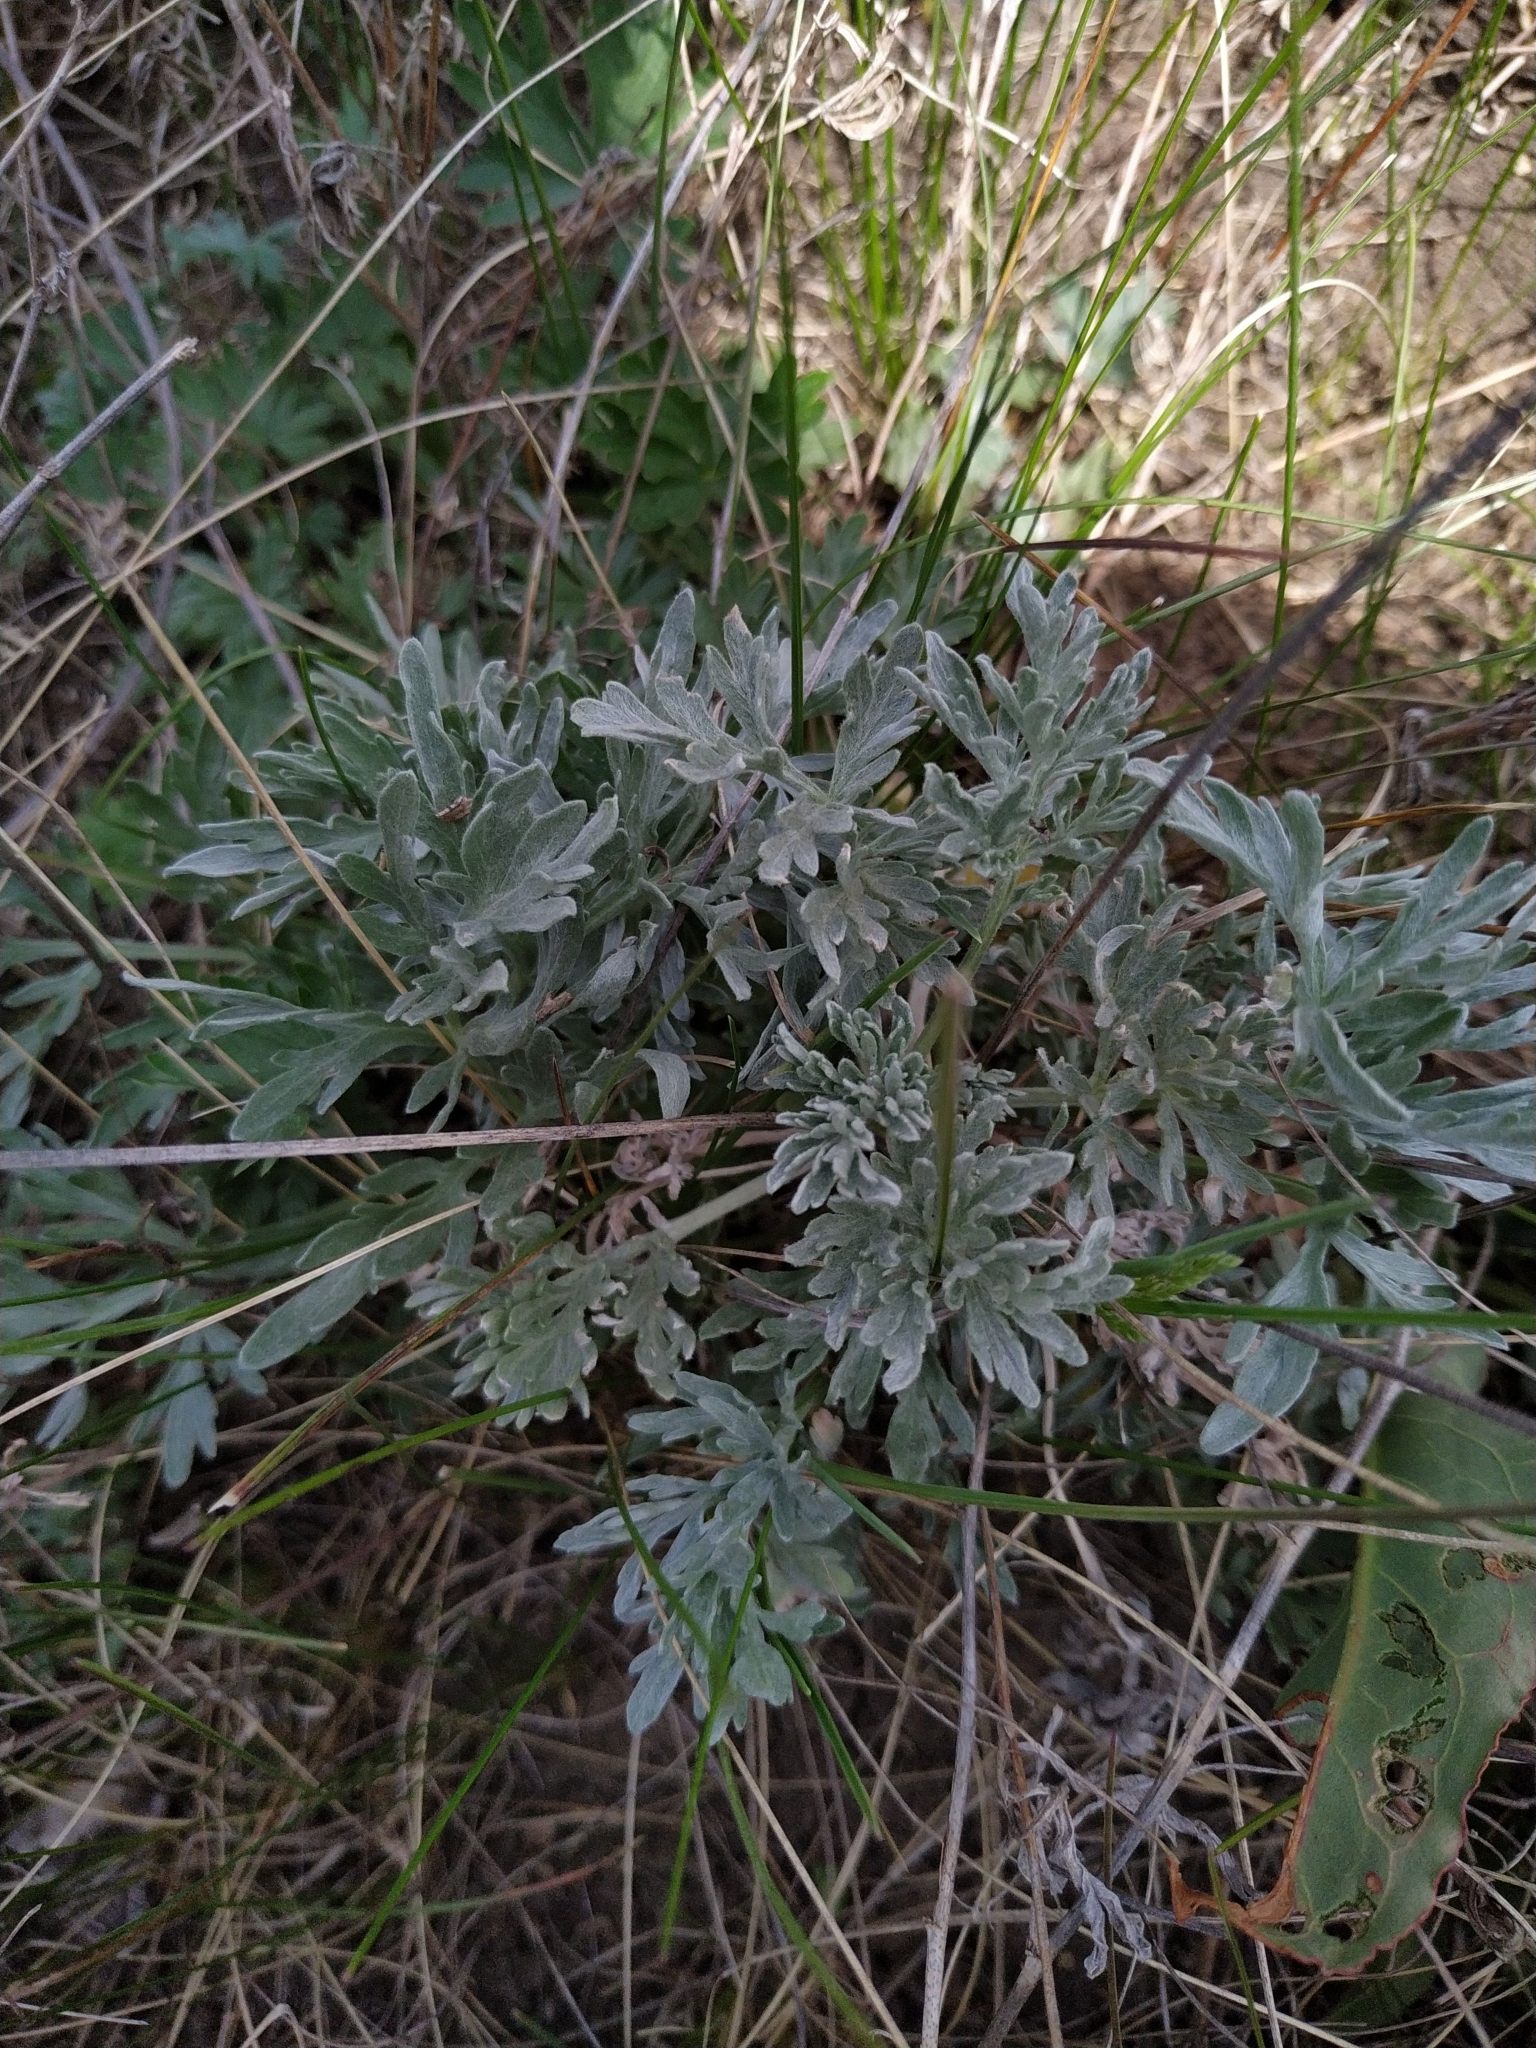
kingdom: Plantae
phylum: Tracheophyta
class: Magnoliopsida
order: Asterales
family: Asteraceae
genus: Artemisia
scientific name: Artemisia absinthium
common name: Wormwood
